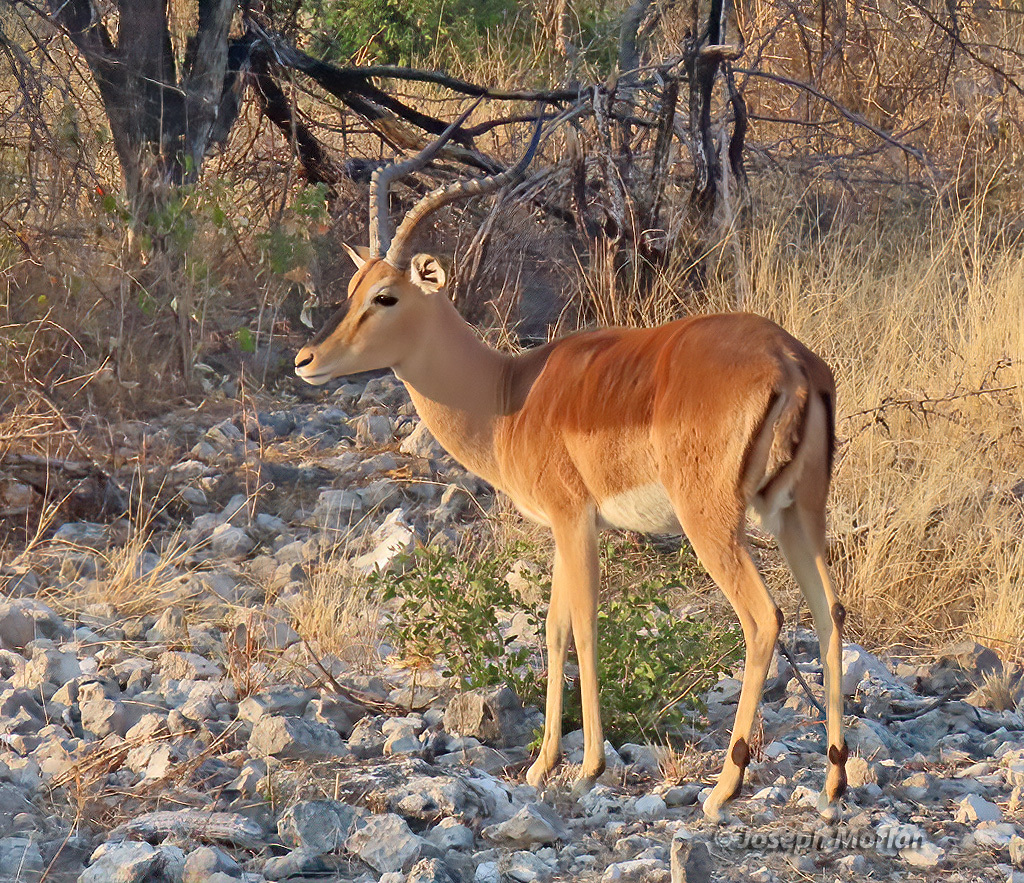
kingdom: Animalia
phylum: Chordata
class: Mammalia
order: Artiodactyla
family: Bovidae
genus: Aepyceros
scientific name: Aepyceros melampus
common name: Impala
